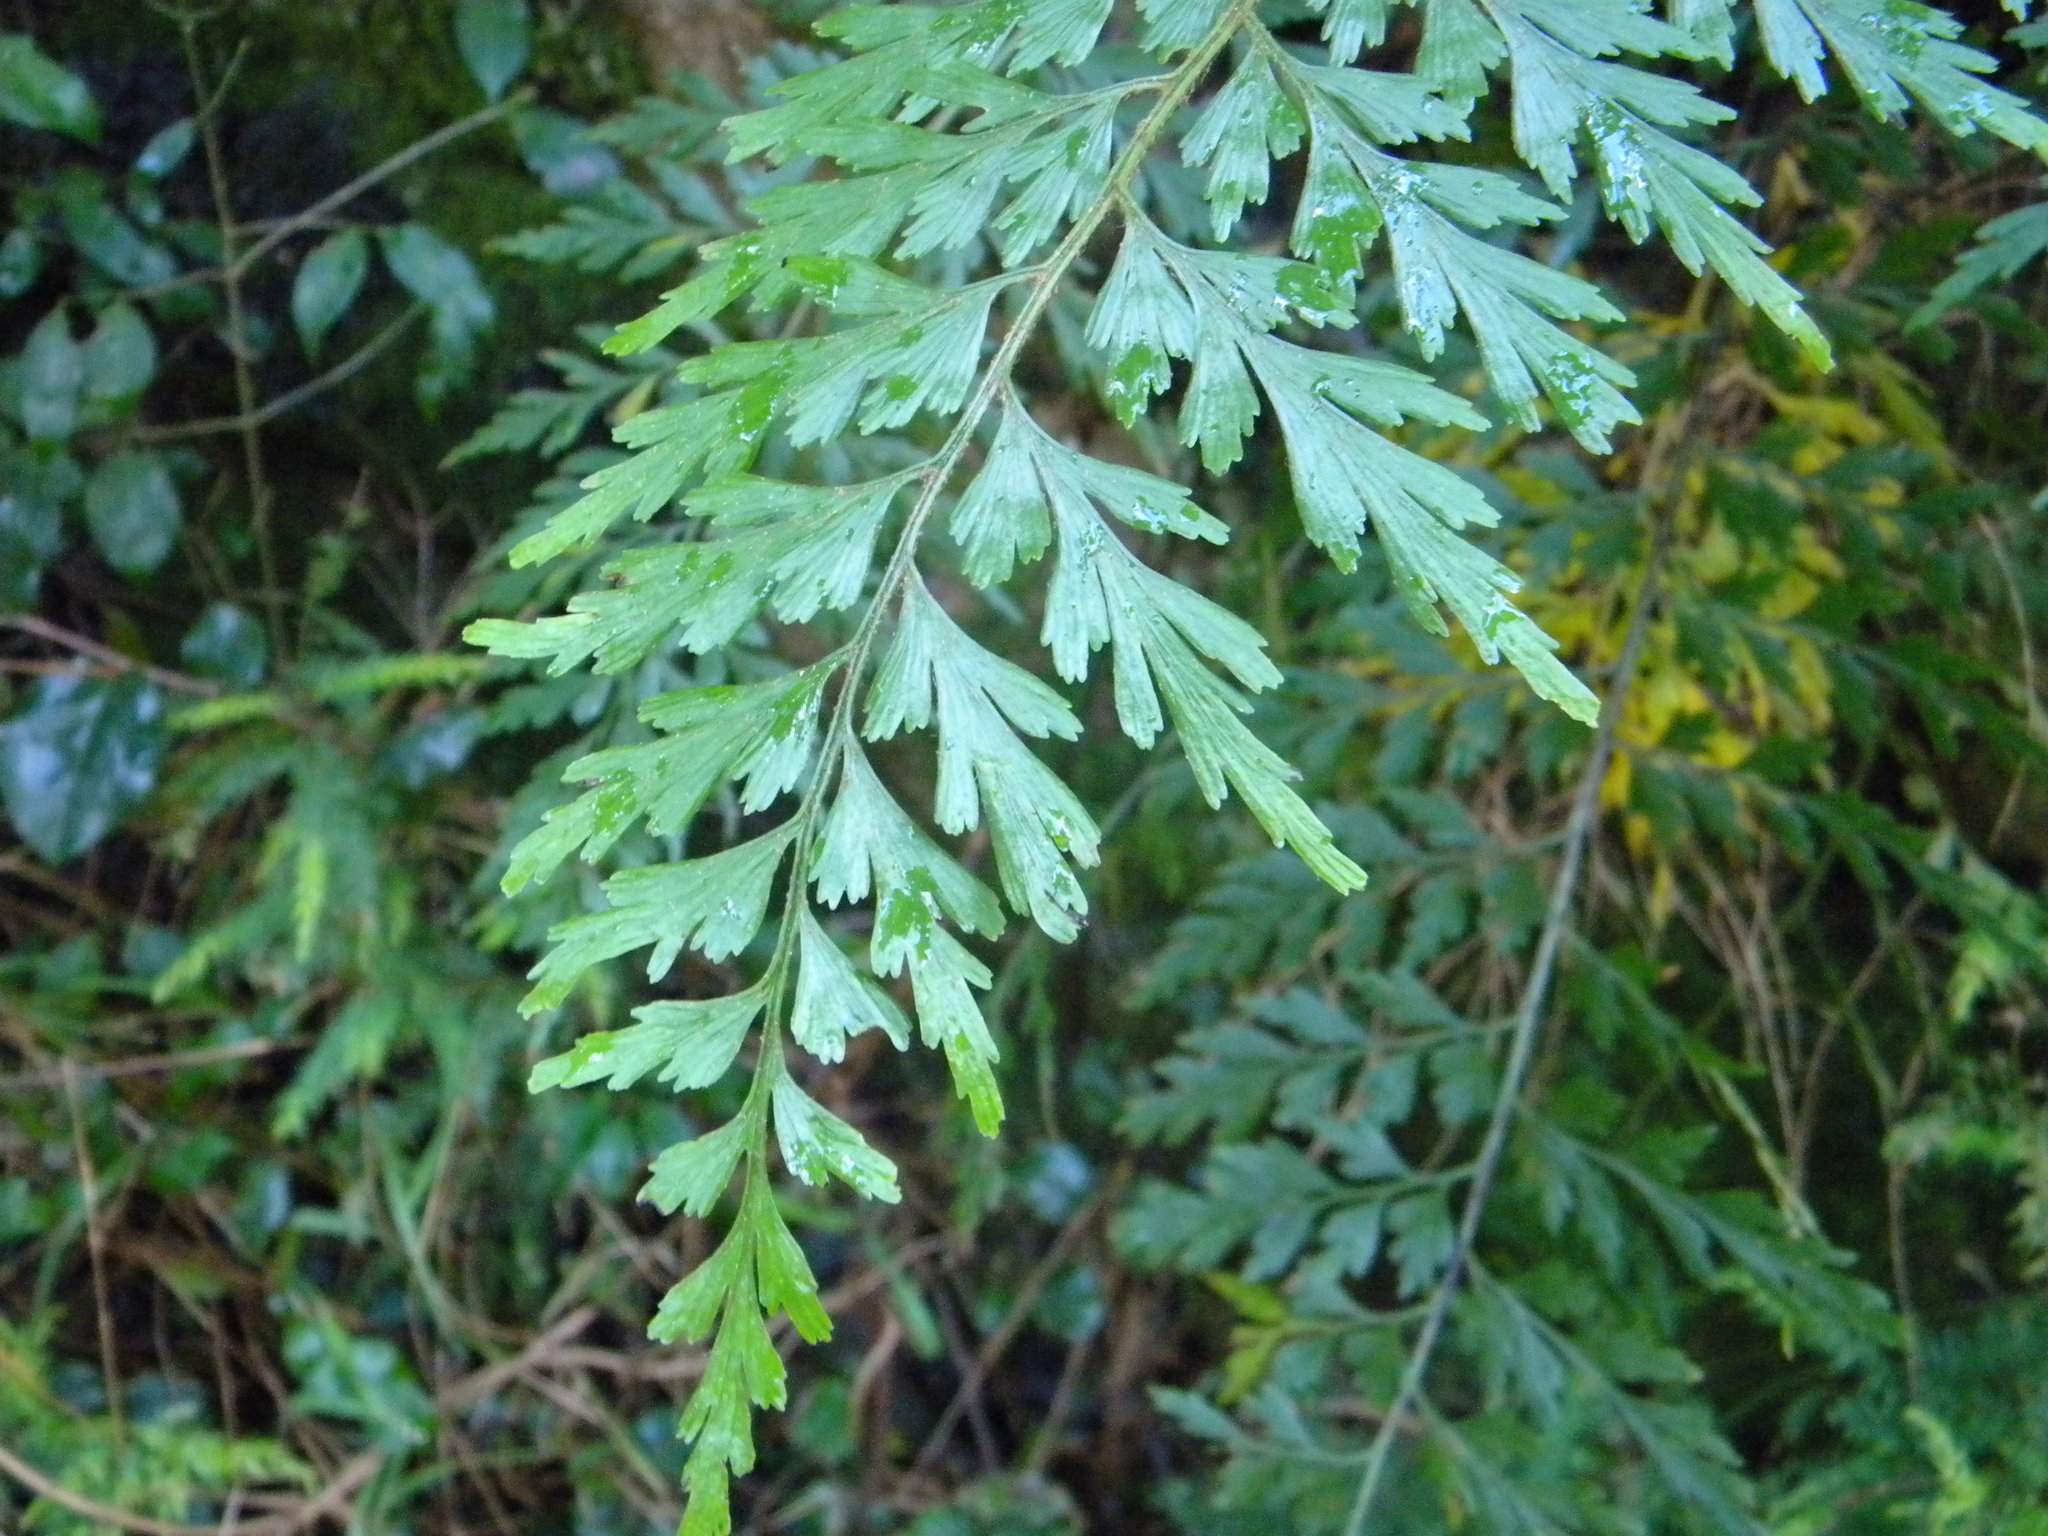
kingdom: Plantae
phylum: Tracheophyta
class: Polypodiopsida
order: Polypodiales
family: Aspleniaceae
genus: Asplenium
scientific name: Asplenium aethiopicum
